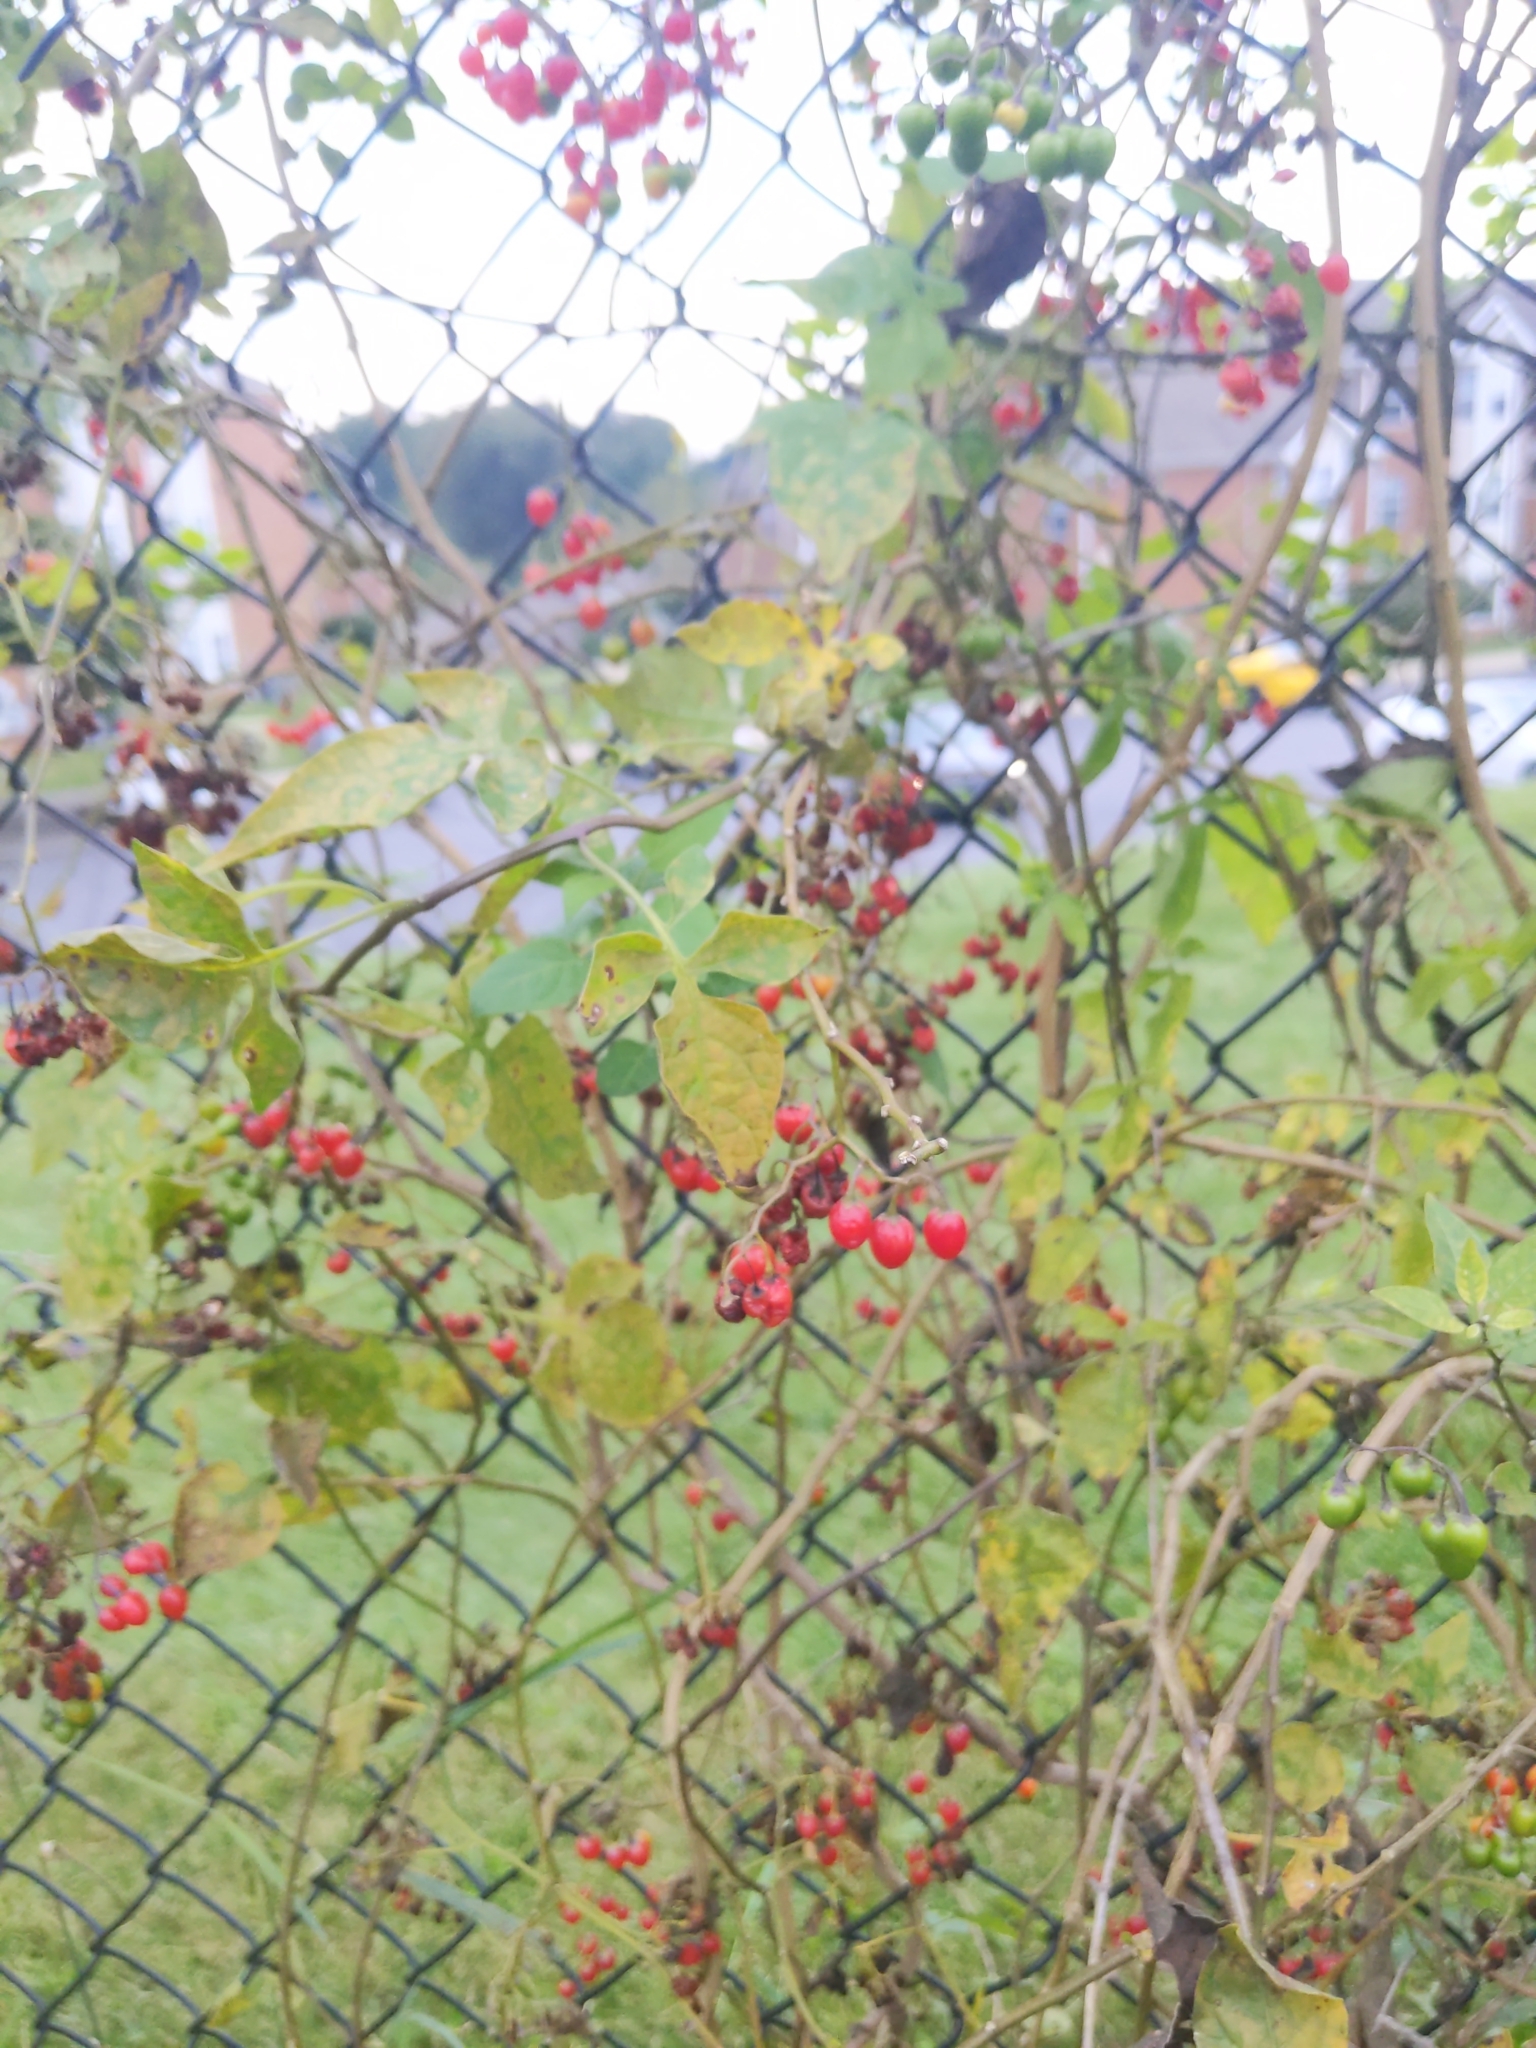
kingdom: Plantae
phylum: Tracheophyta
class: Magnoliopsida
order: Solanales
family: Solanaceae
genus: Solanum
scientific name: Solanum dulcamara
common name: Climbing nightshade
